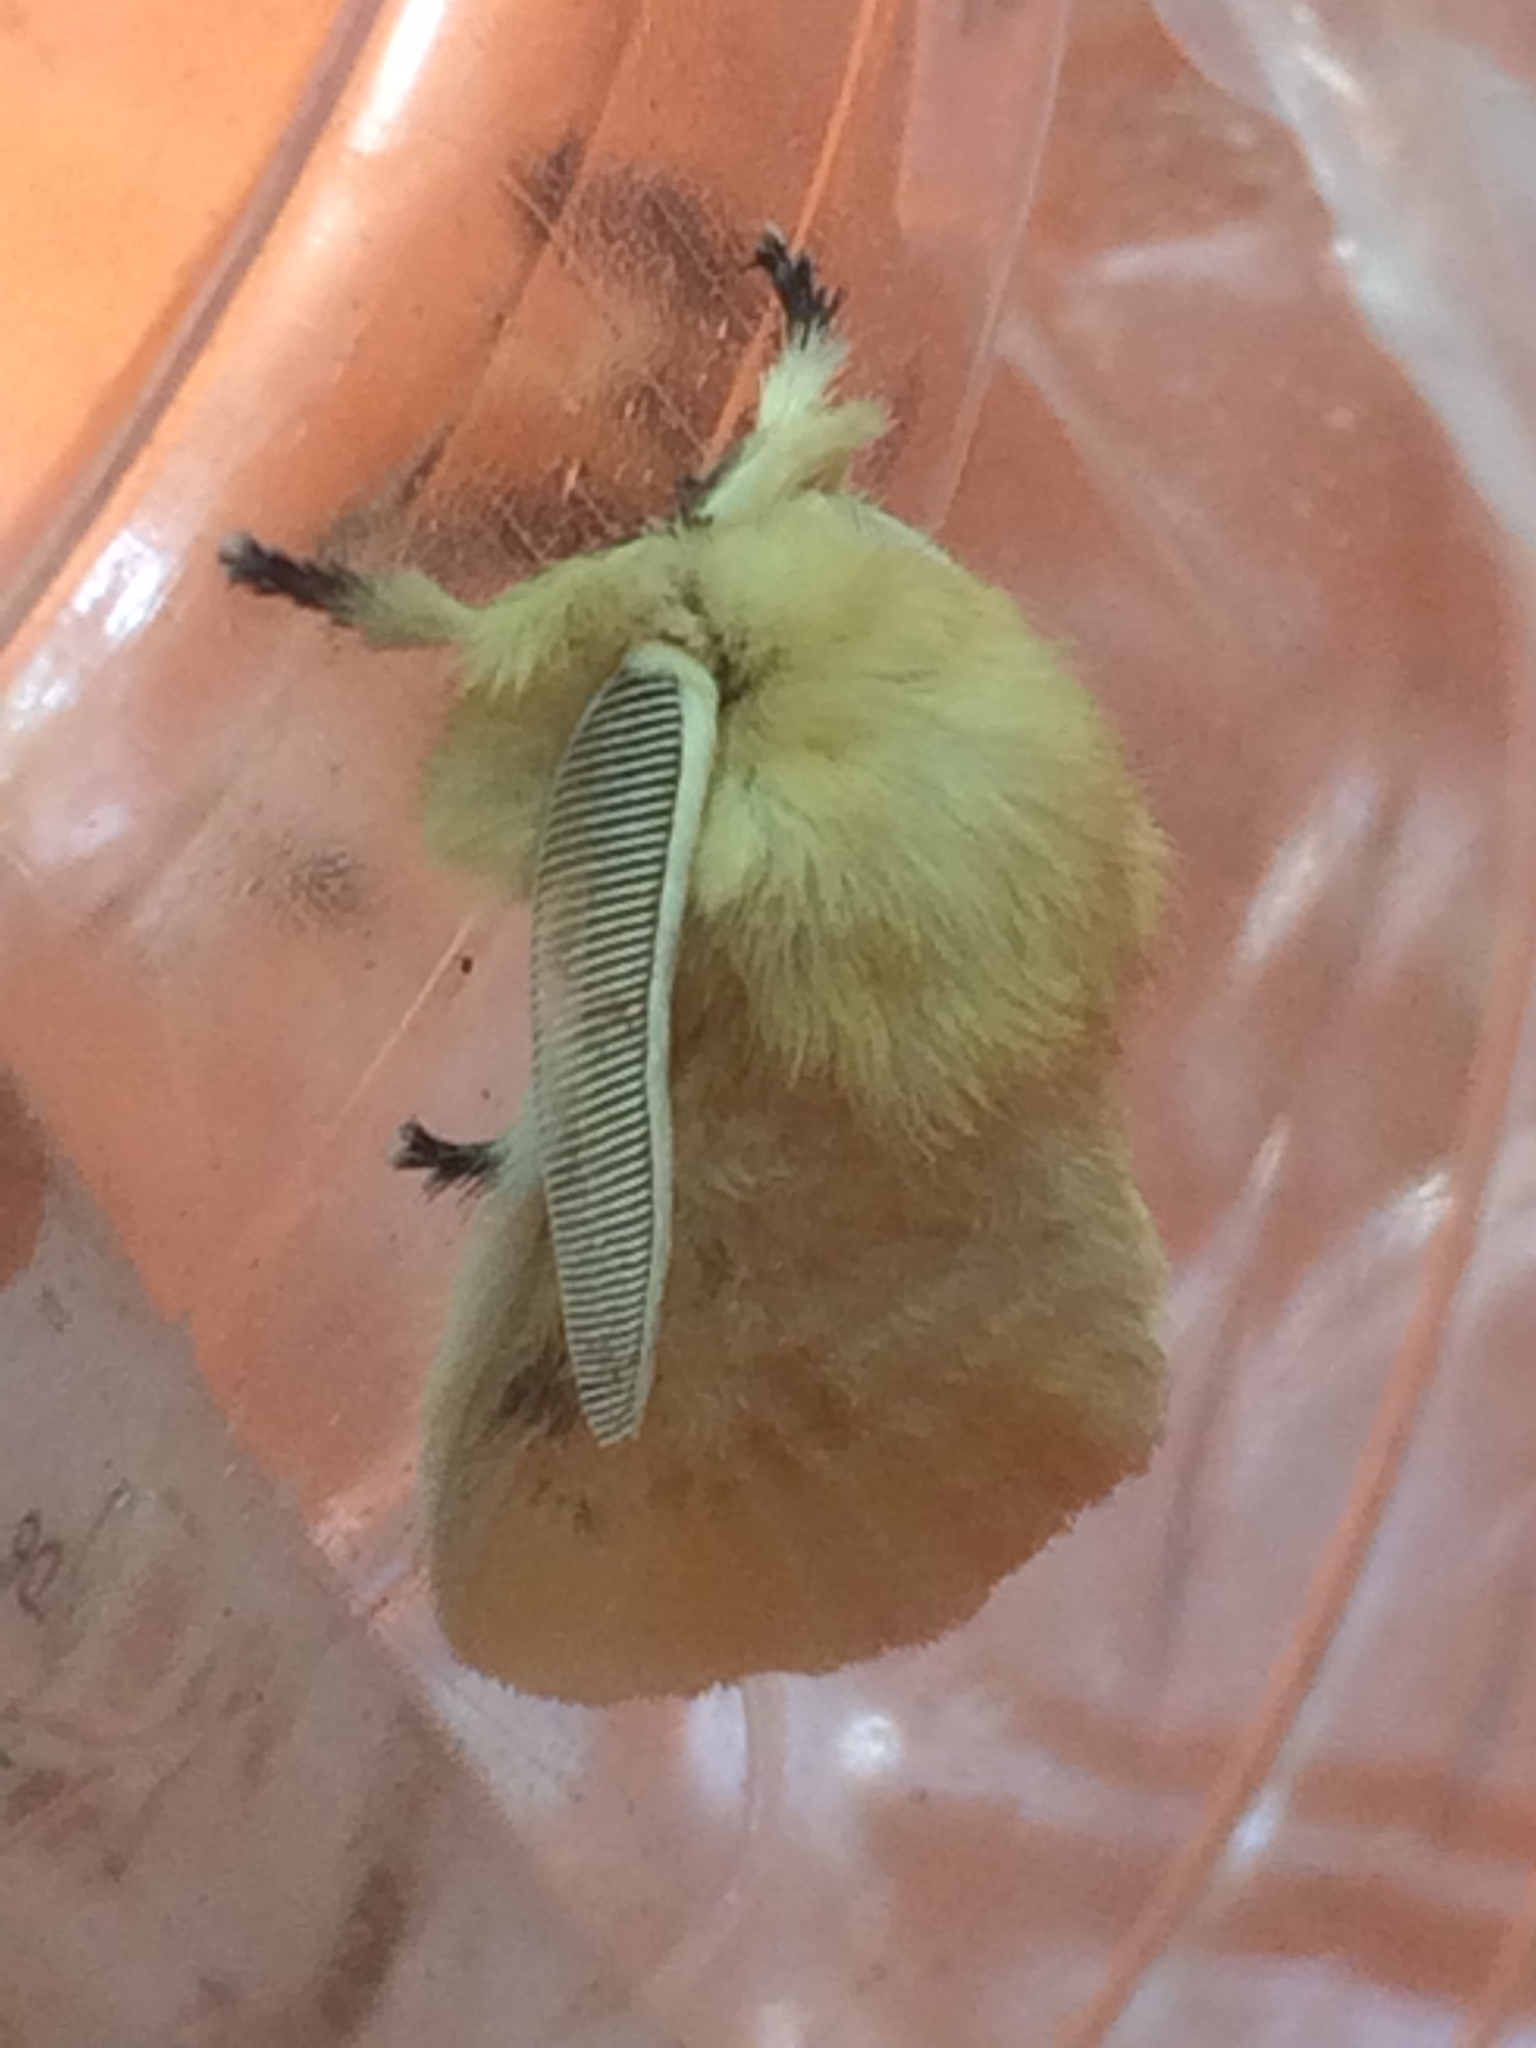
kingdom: Animalia
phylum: Arthropoda
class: Insecta
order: Lepidoptera
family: Megalopygidae
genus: Megalopyge
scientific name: Megalopyge crispata
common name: Black-waved flannel moth
